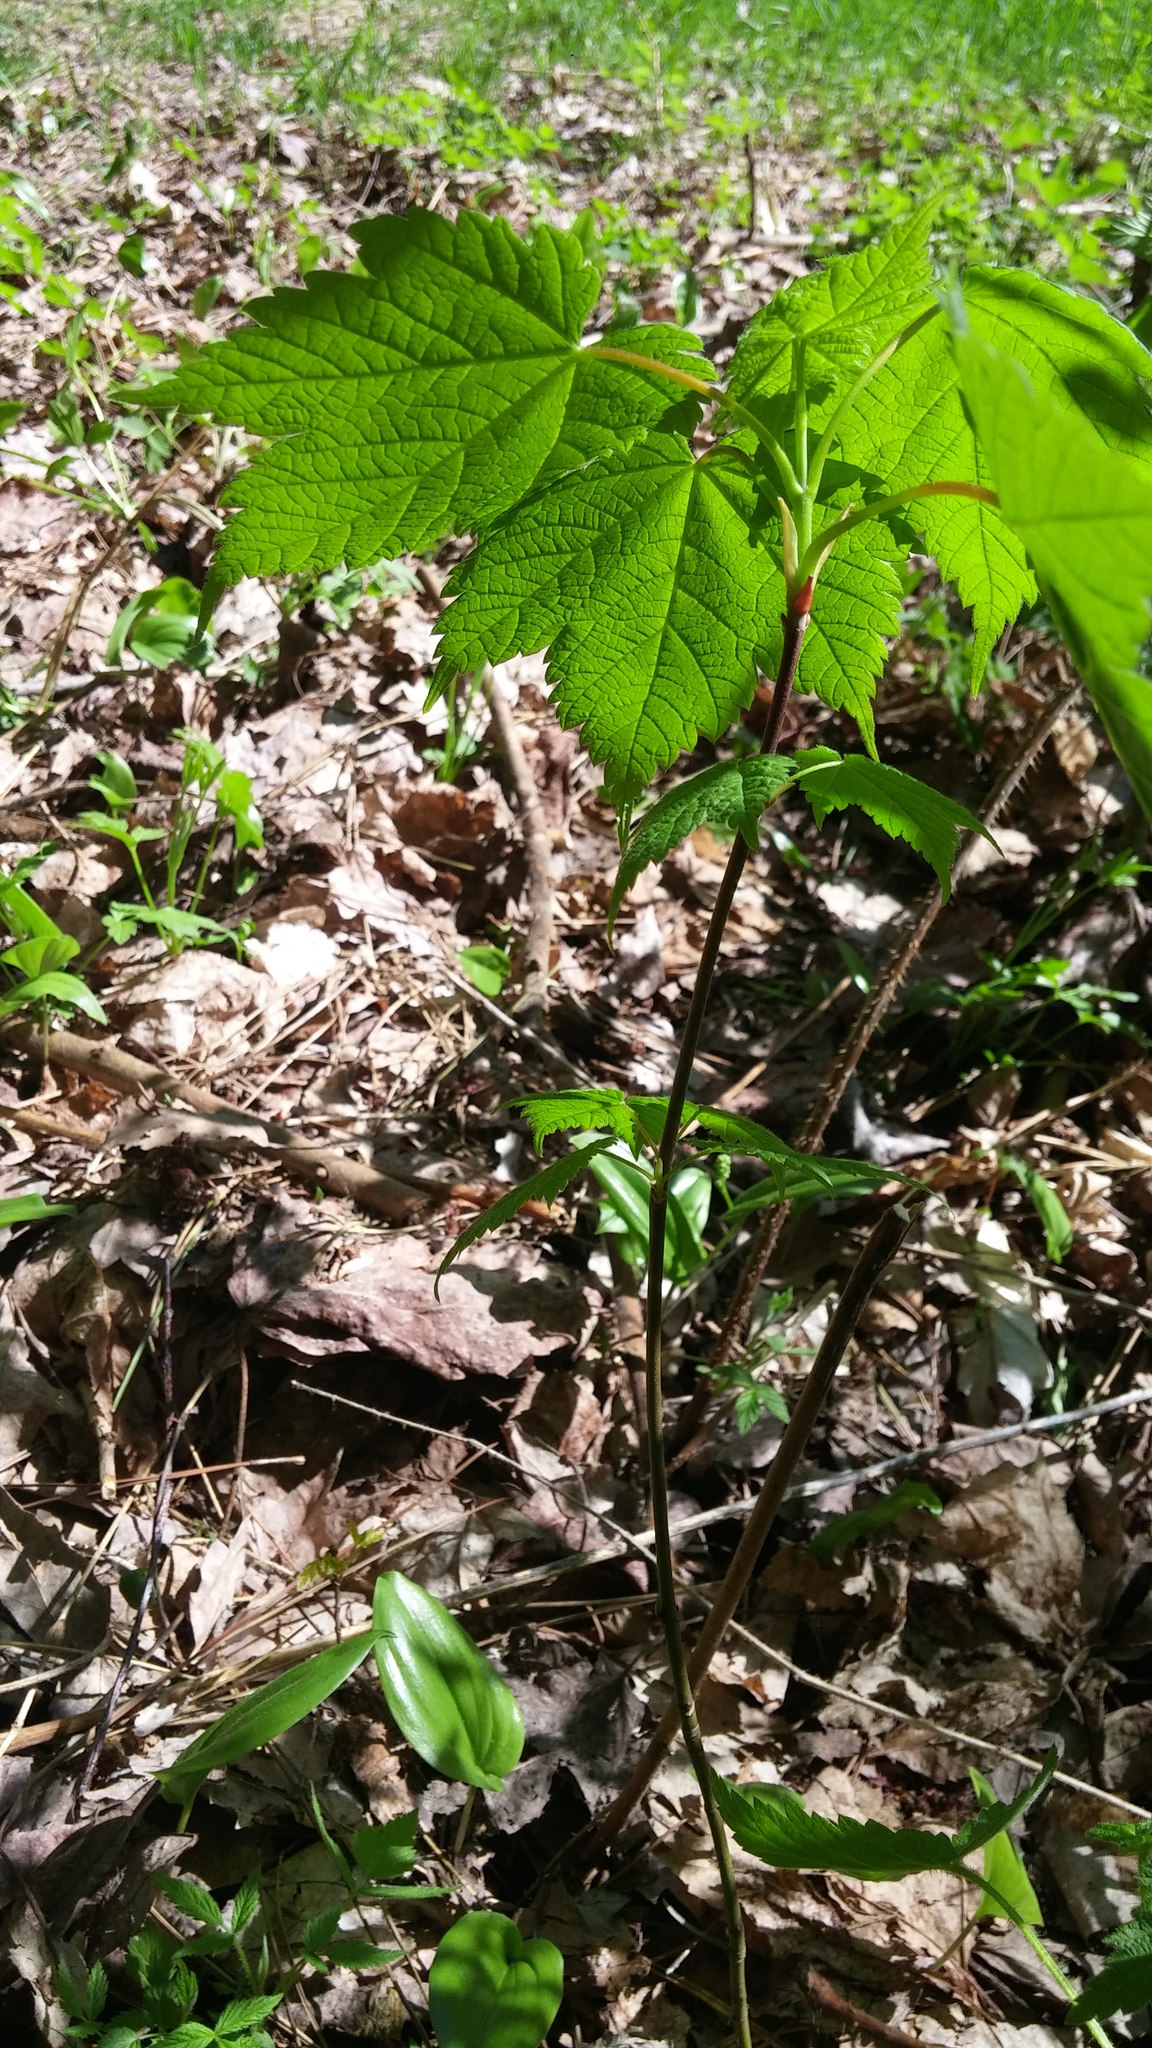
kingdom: Plantae
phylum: Tracheophyta
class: Magnoliopsida
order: Sapindales
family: Sapindaceae
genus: Acer
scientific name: Acer spicatum
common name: Mountain maple
